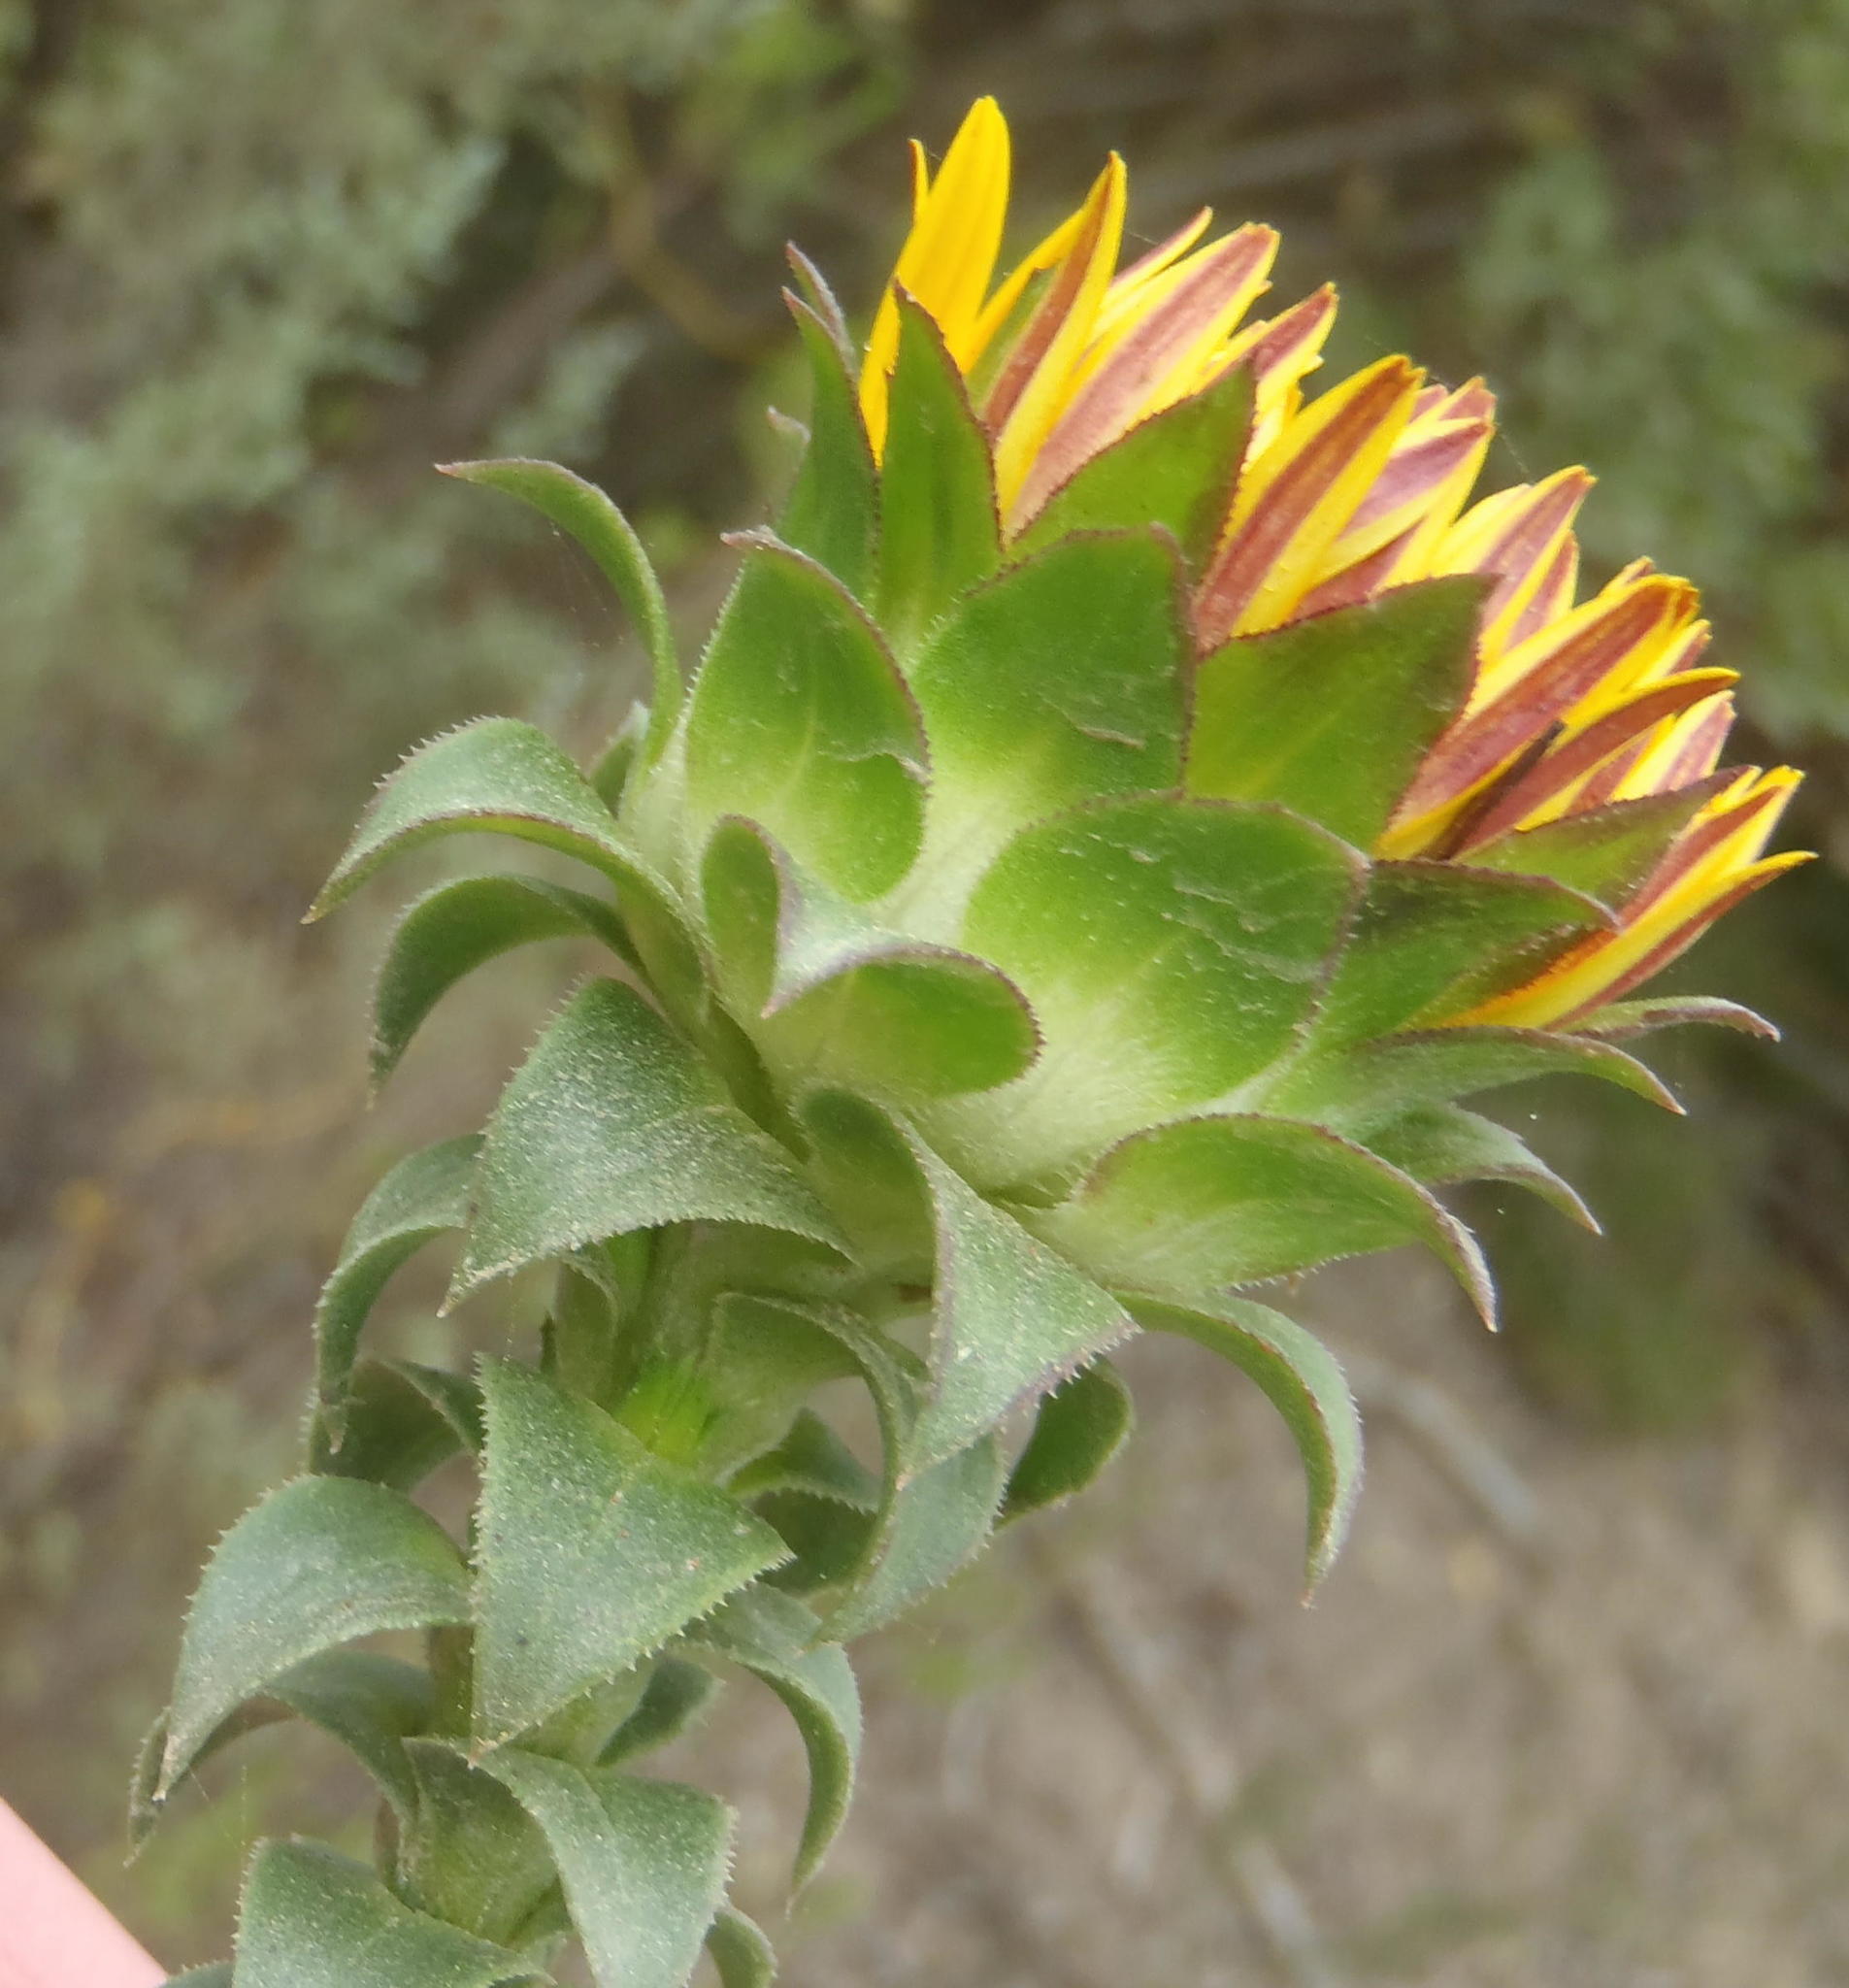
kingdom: Plantae
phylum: Tracheophyta
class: Magnoliopsida
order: Asterales
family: Asteraceae
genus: Oedera
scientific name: Oedera imbricata
